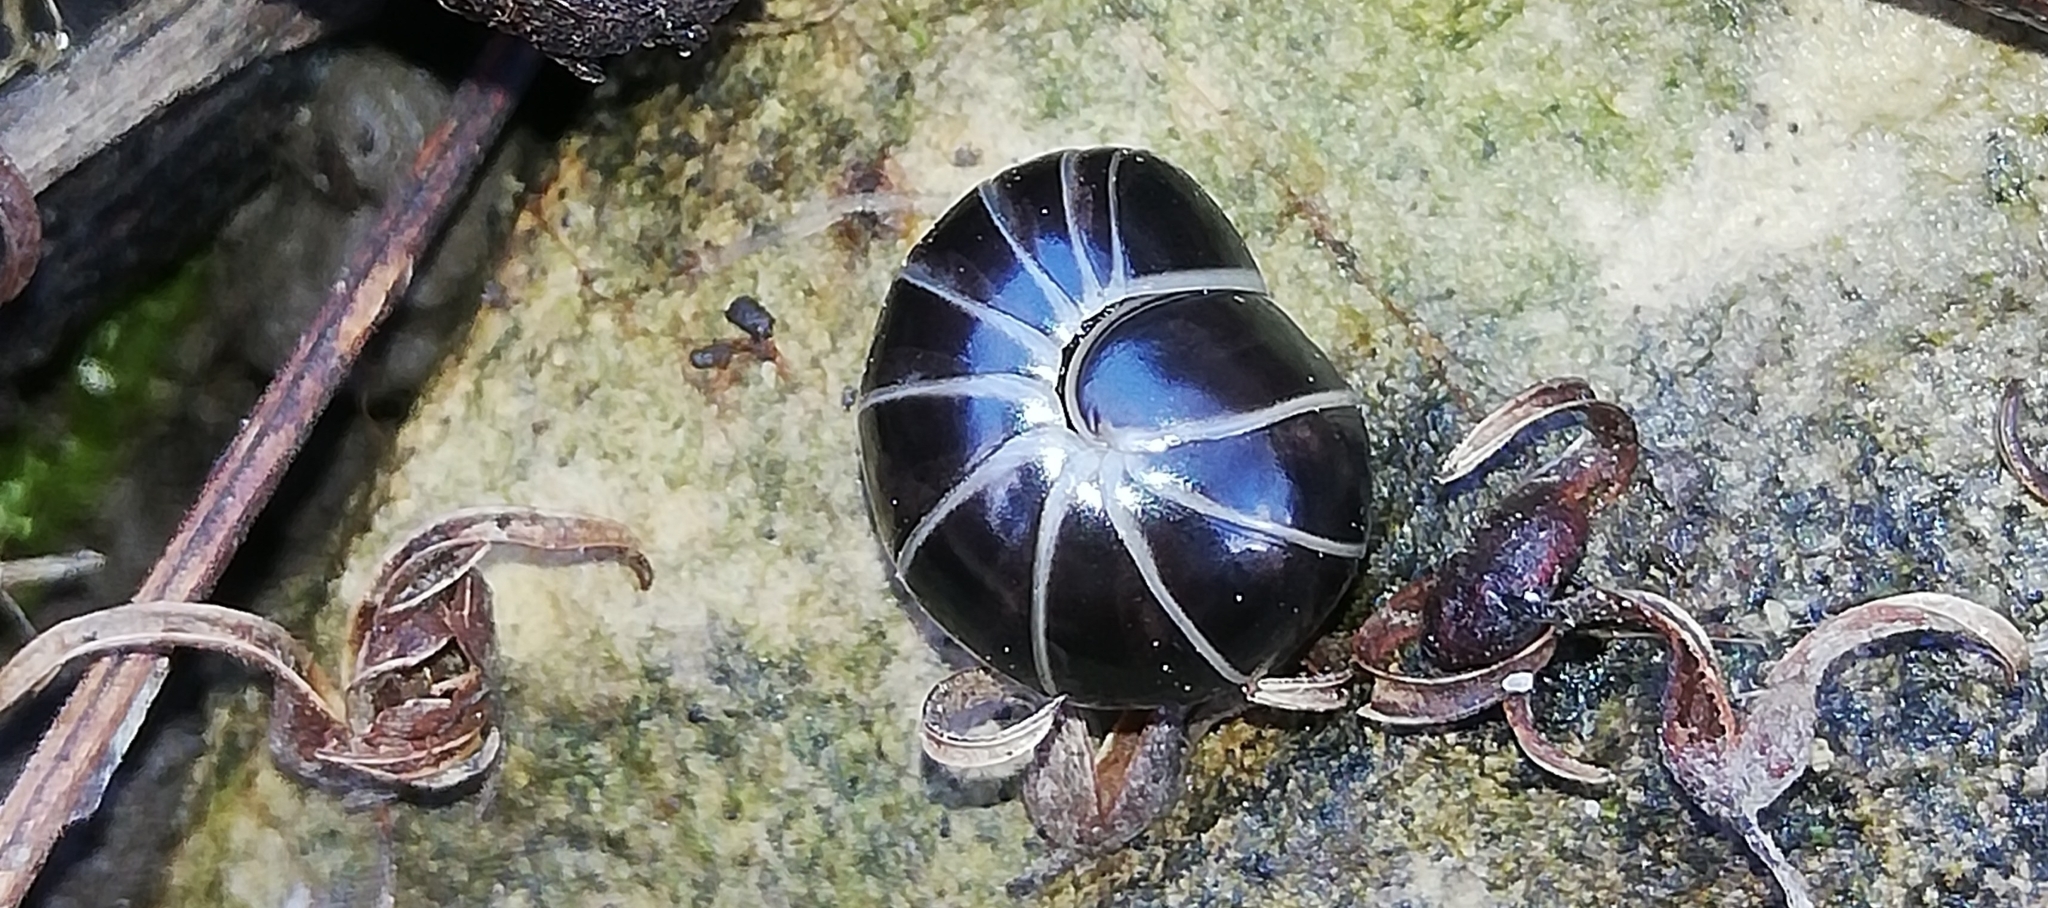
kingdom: Animalia
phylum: Arthropoda
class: Diplopoda
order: Glomerida
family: Glomeridae
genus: Glomeris
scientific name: Glomeris marginata
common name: Bordered pill millipede
